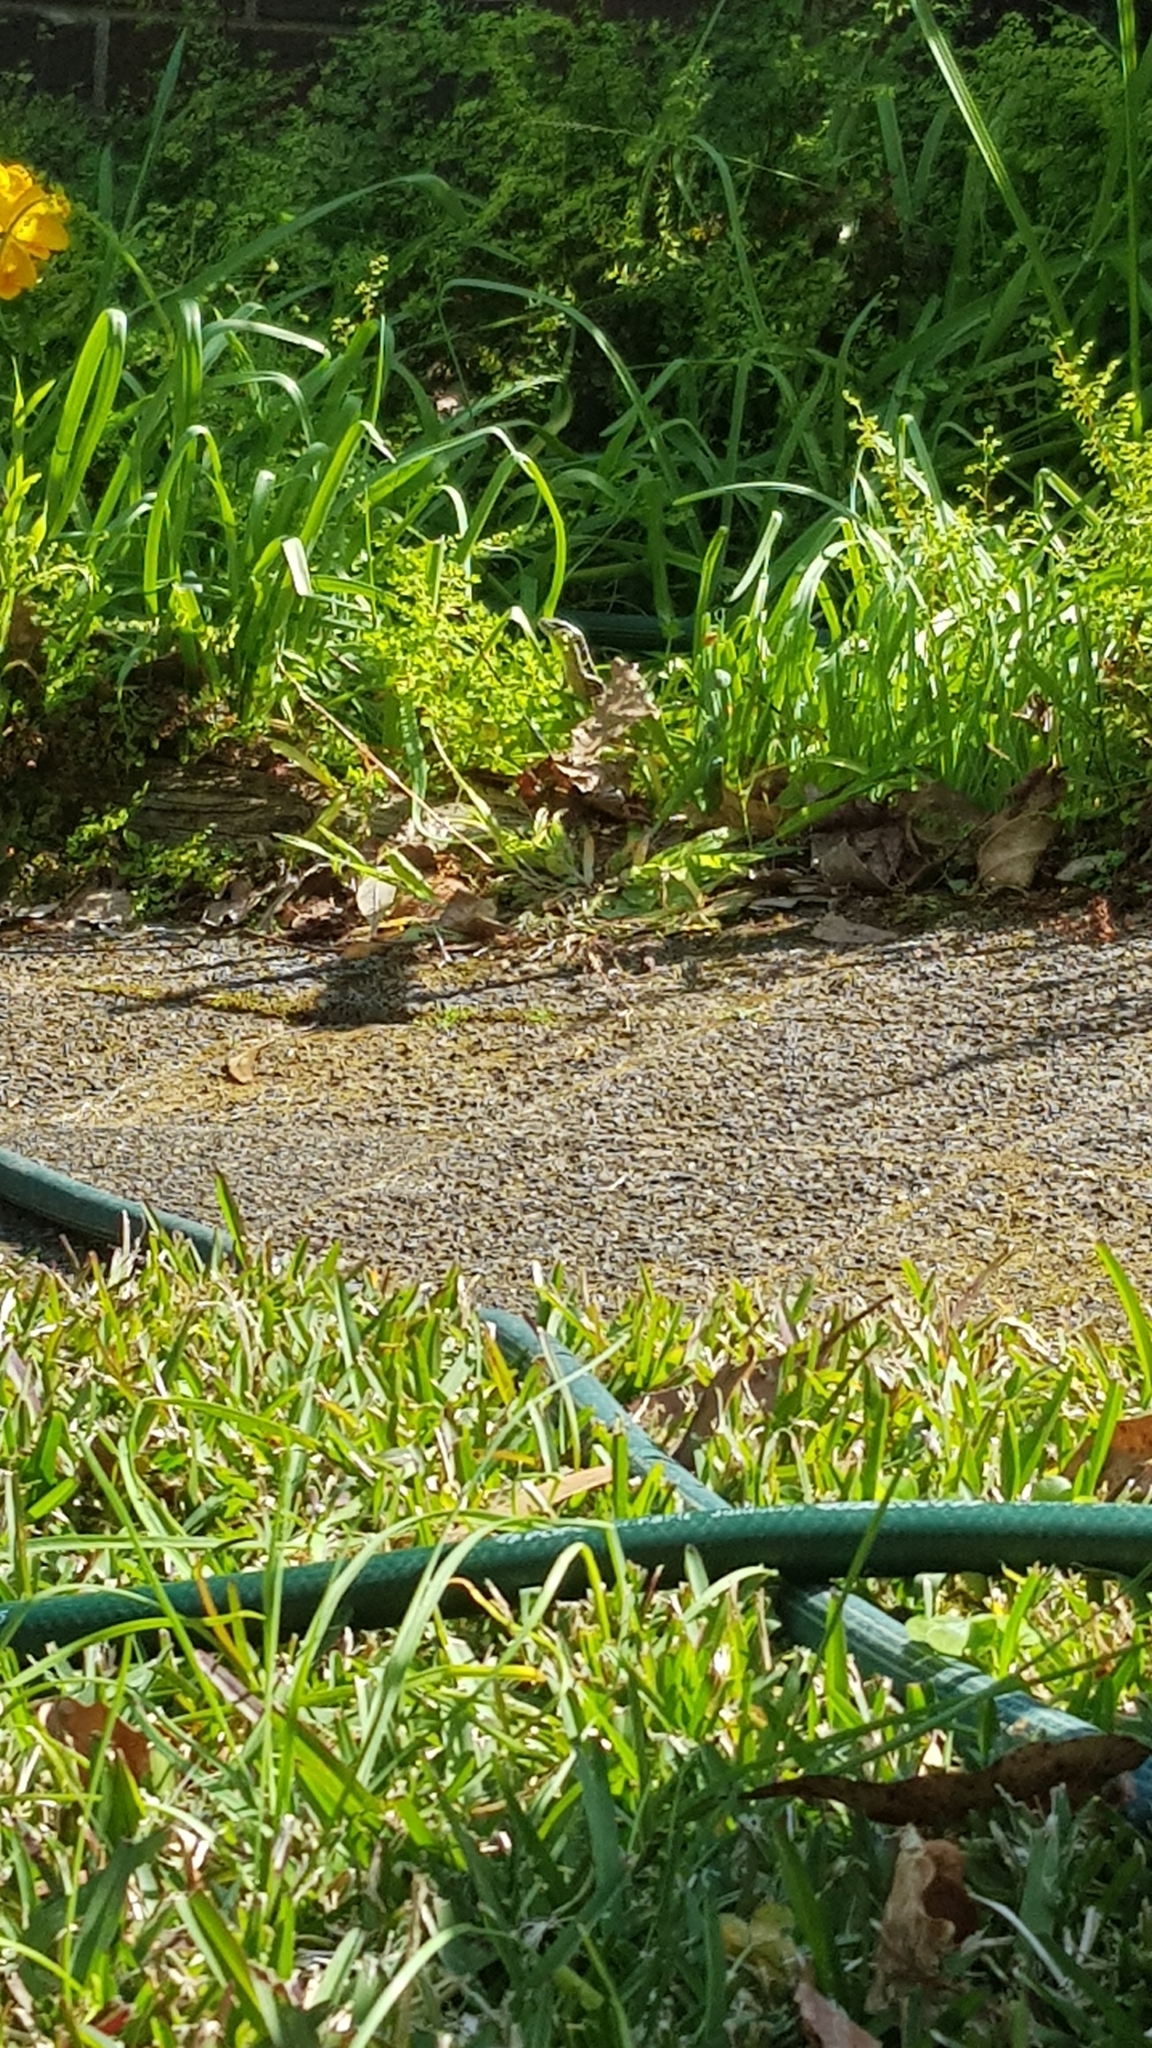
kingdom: Animalia
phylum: Chordata
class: Squamata
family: Scincidae
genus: Eulamprus
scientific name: Eulamprus quoyii
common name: Eastern water skink
